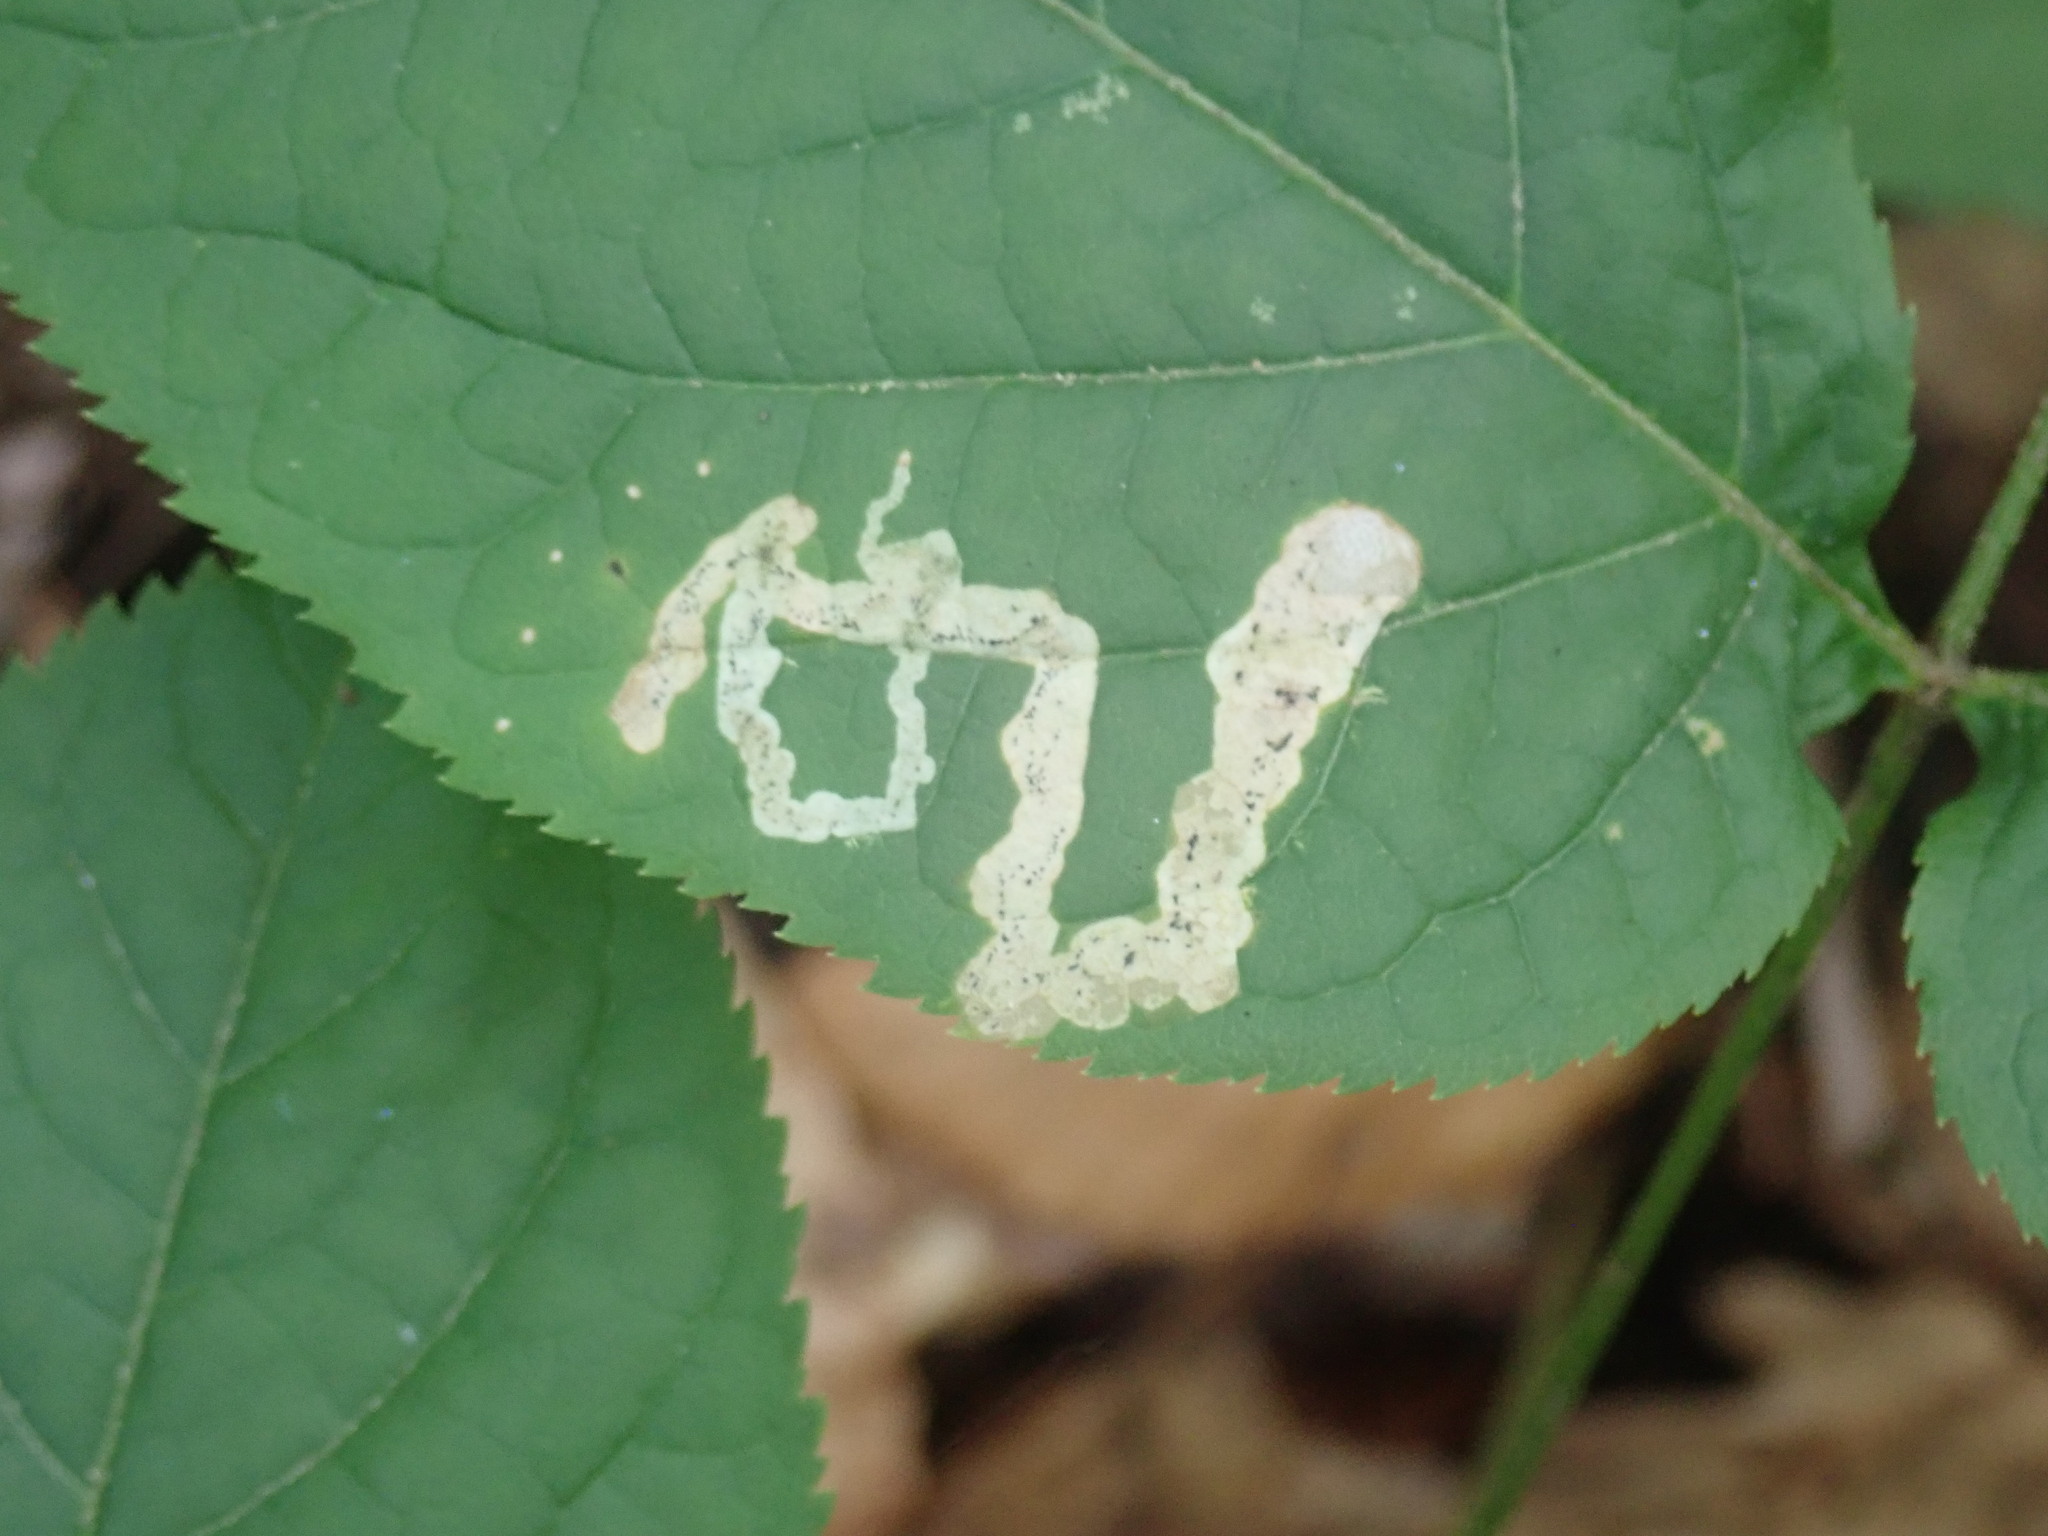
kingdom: Animalia
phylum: Arthropoda
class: Insecta
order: Diptera
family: Agromyzidae
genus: Phytomyza
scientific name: Phytomyza aralivora
